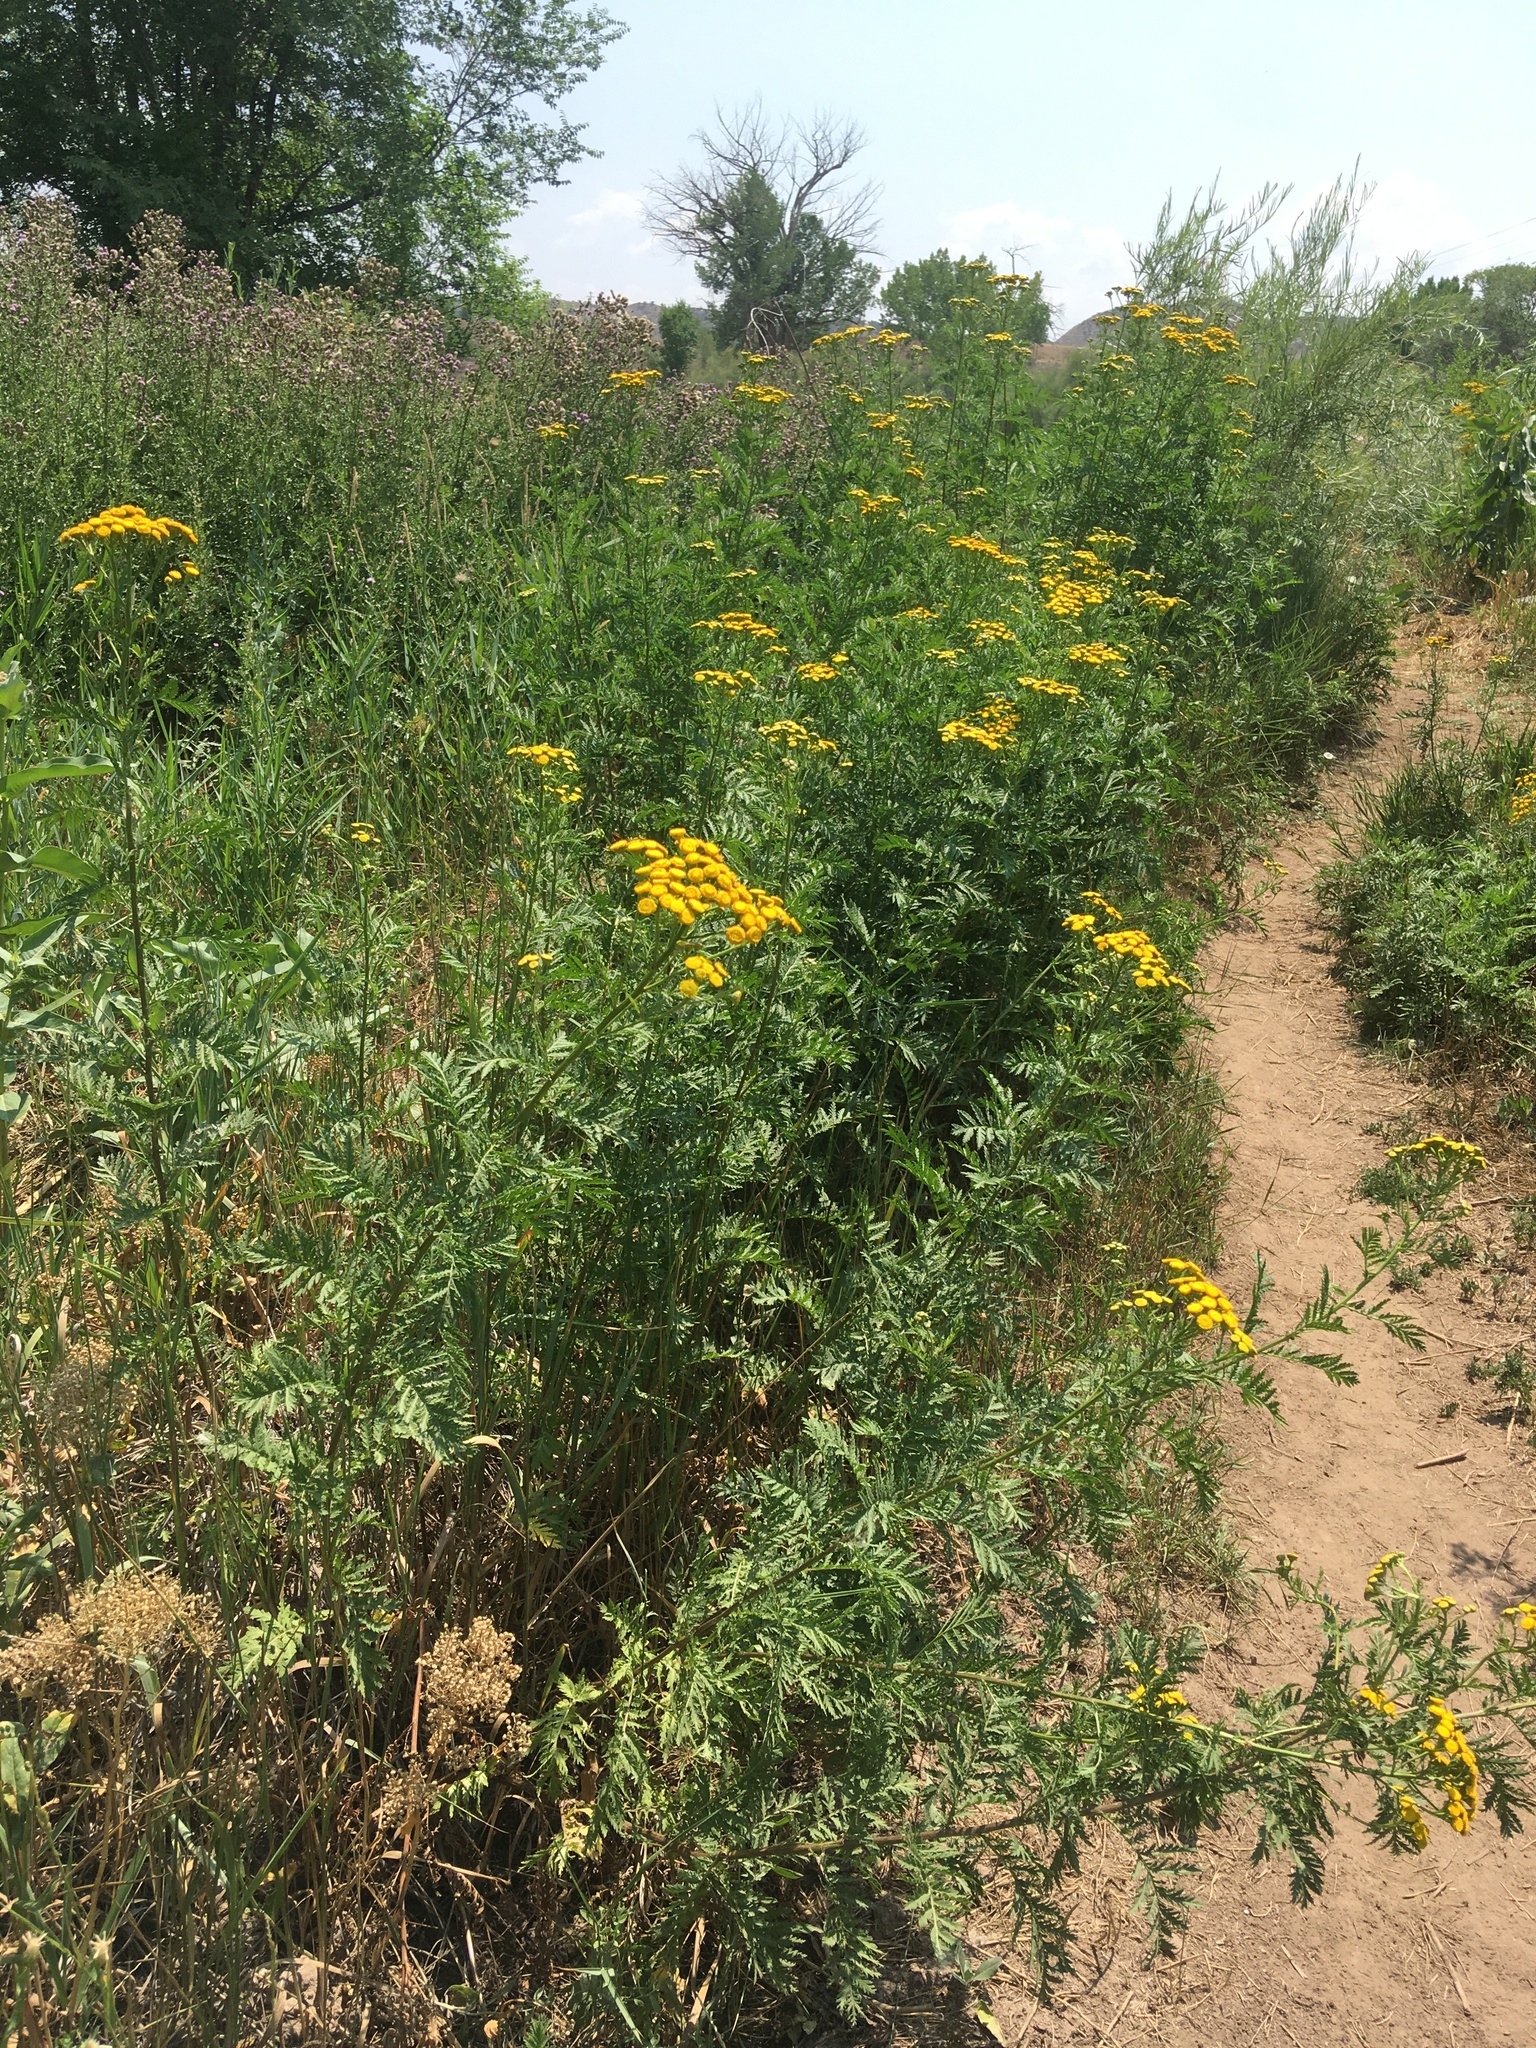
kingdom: Plantae
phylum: Tracheophyta
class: Magnoliopsida
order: Asterales
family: Asteraceae
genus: Tanacetum
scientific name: Tanacetum vulgare
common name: Common tansy
